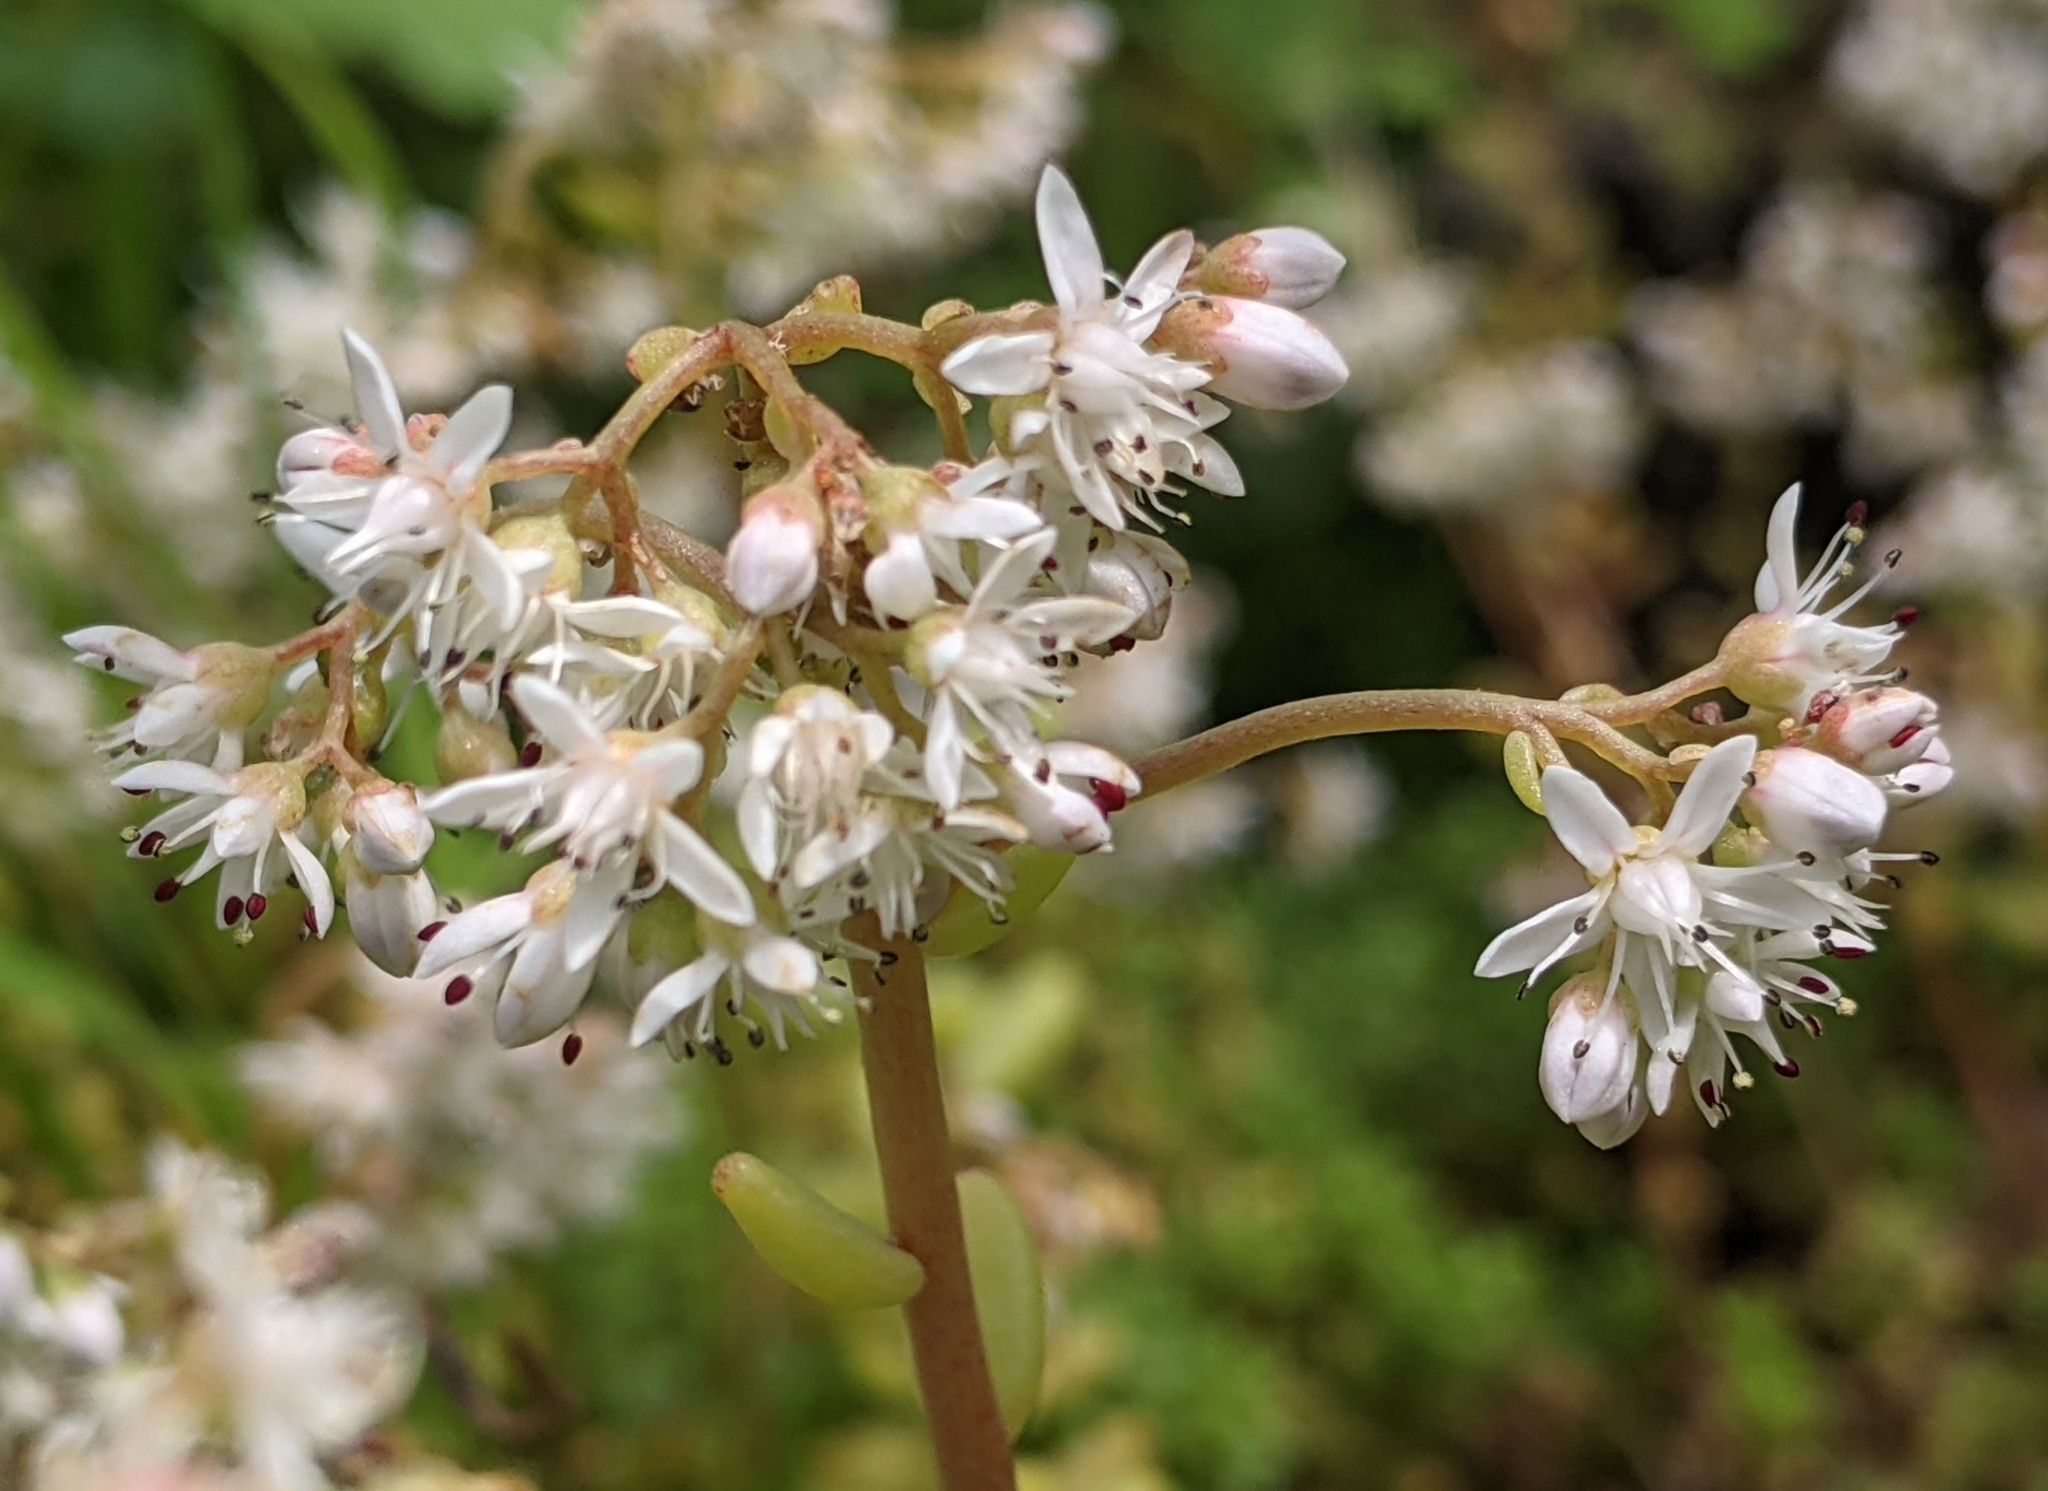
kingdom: Plantae
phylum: Tracheophyta
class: Magnoliopsida
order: Saxifragales
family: Crassulaceae
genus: Sedum
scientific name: Sedum album
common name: White stonecrop
